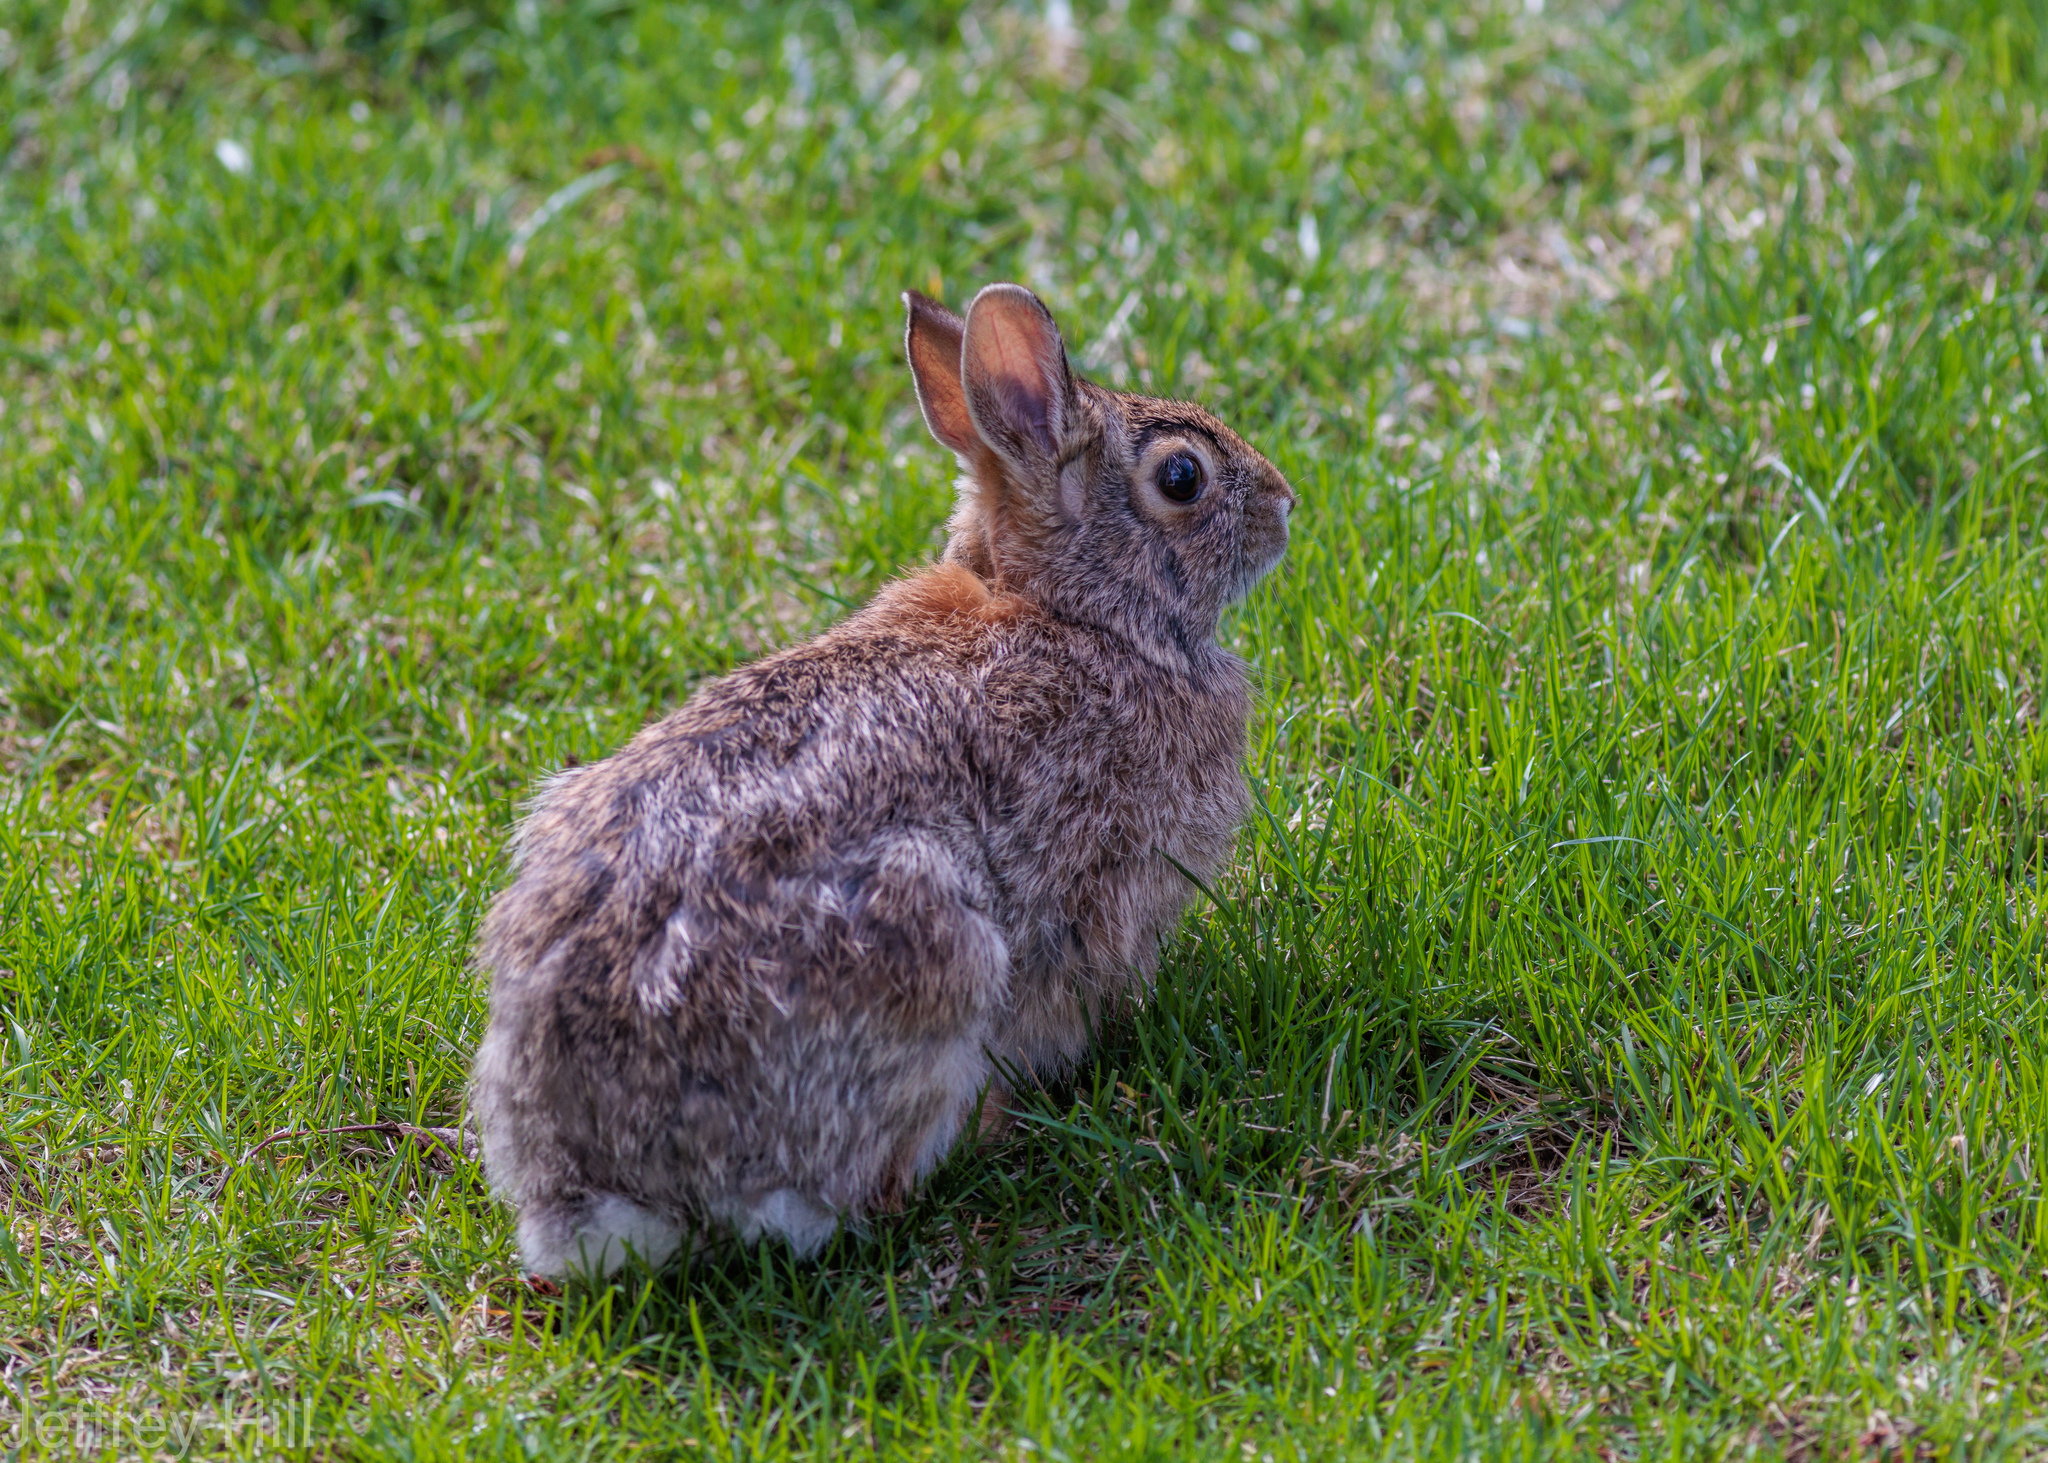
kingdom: Animalia
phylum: Chordata
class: Mammalia
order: Lagomorpha
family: Leporidae
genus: Sylvilagus
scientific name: Sylvilagus floridanus
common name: Eastern cottontail
